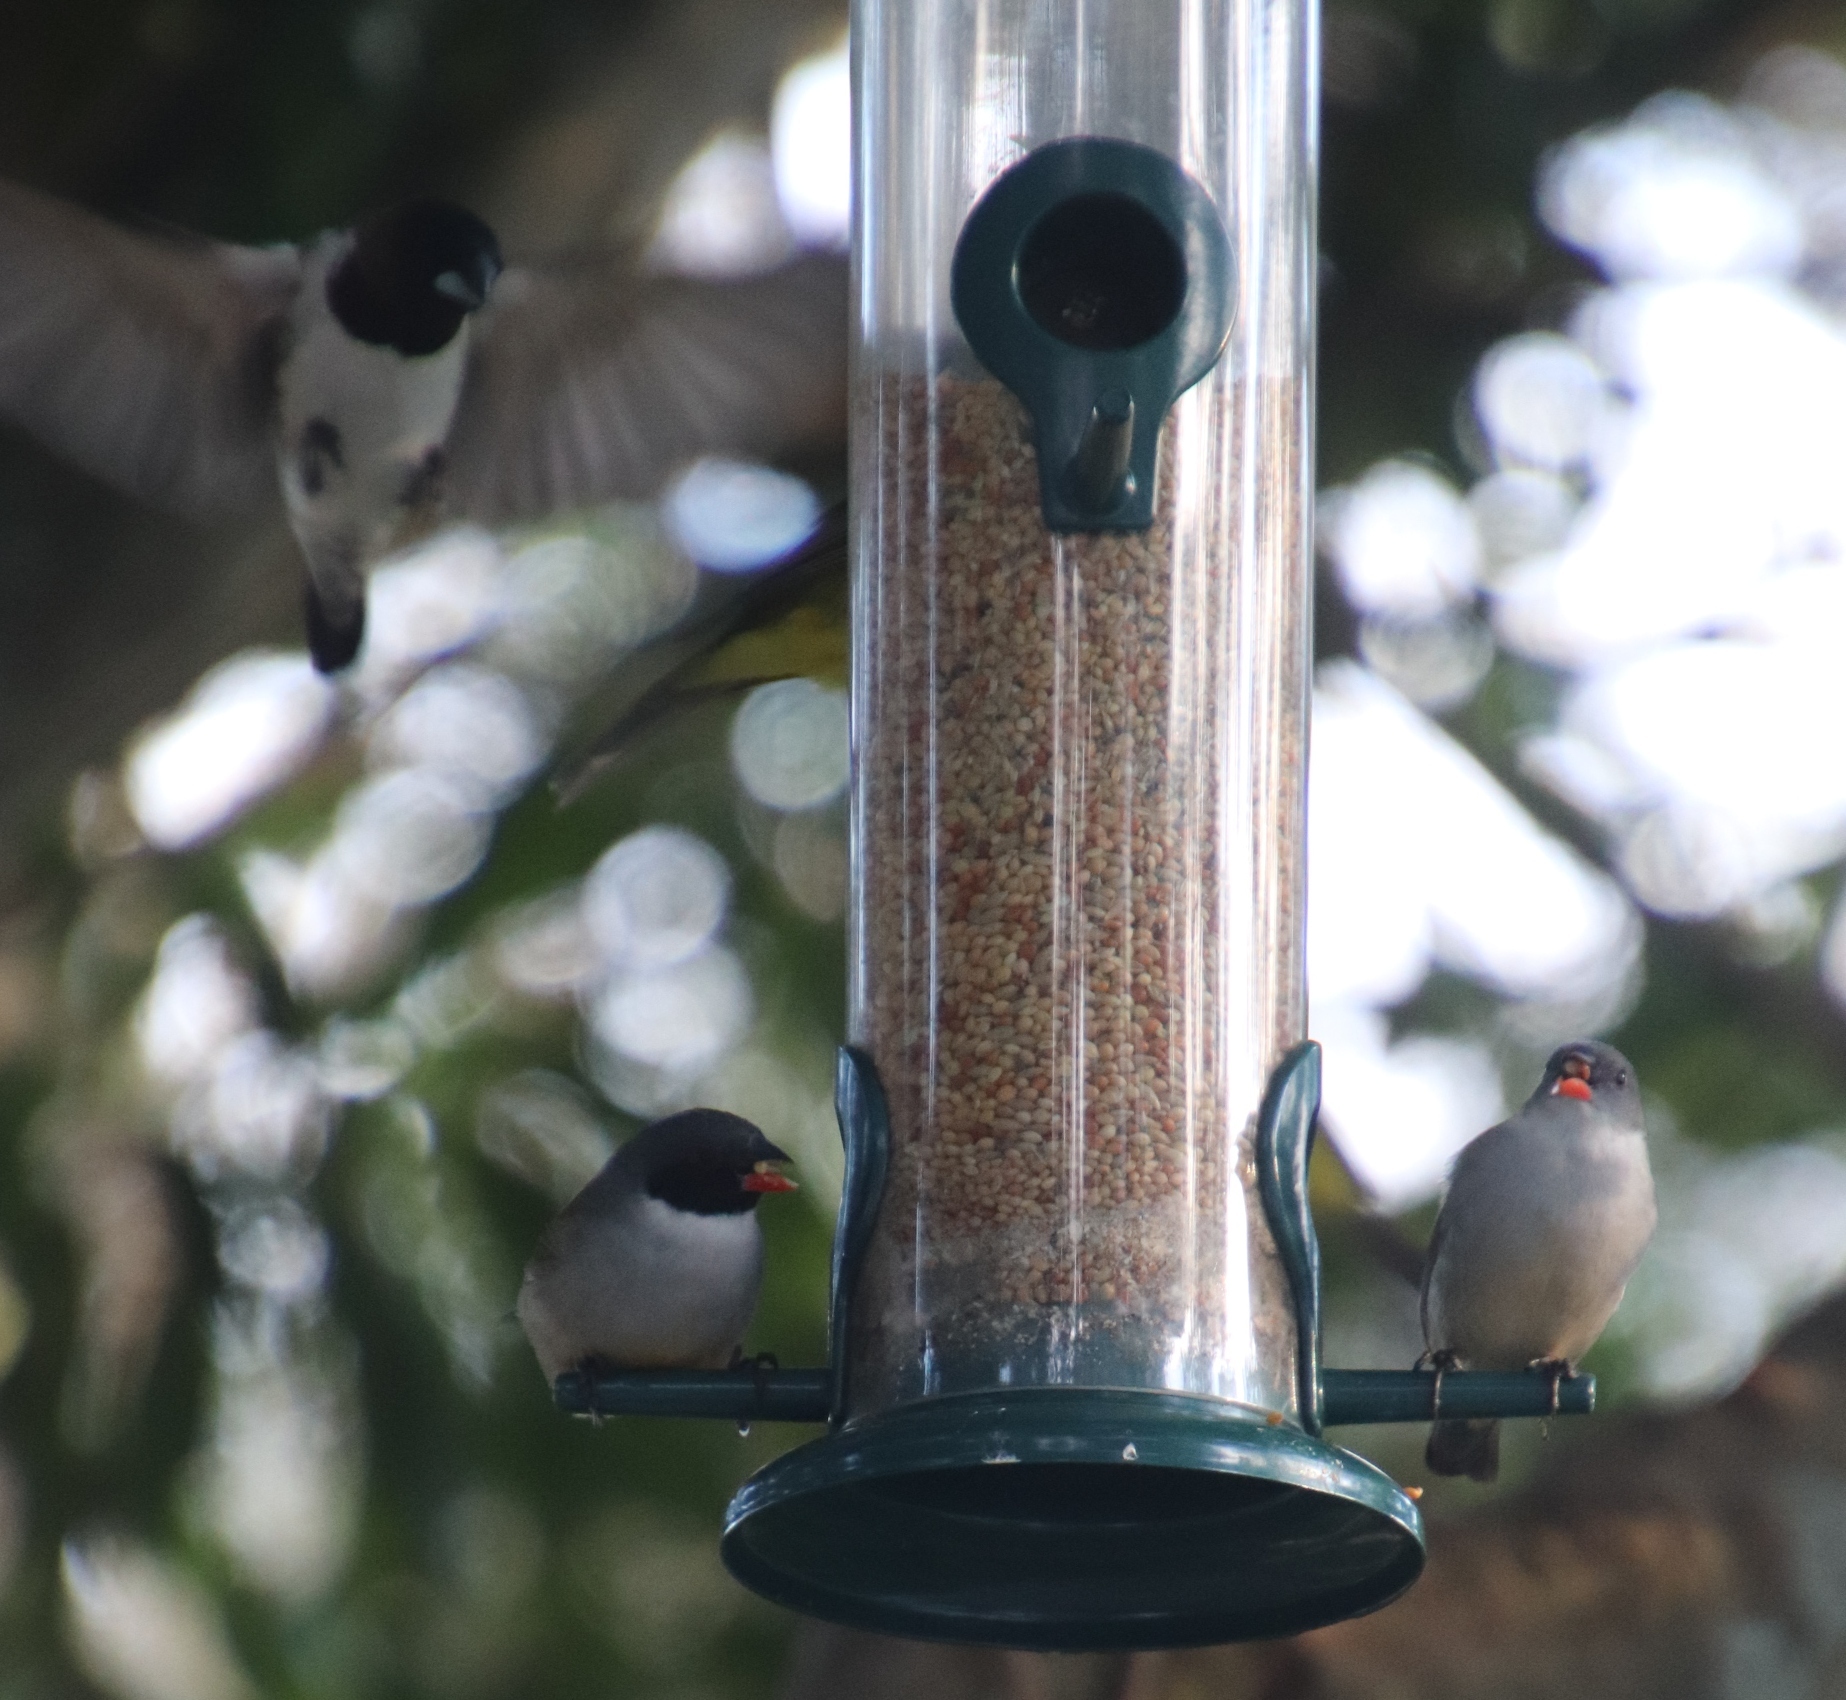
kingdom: Animalia
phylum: Chordata
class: Aves
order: Passeriformes
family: Estrildidae
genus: Coccopygia
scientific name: Coccopygia melanotis
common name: Swee waxbill
